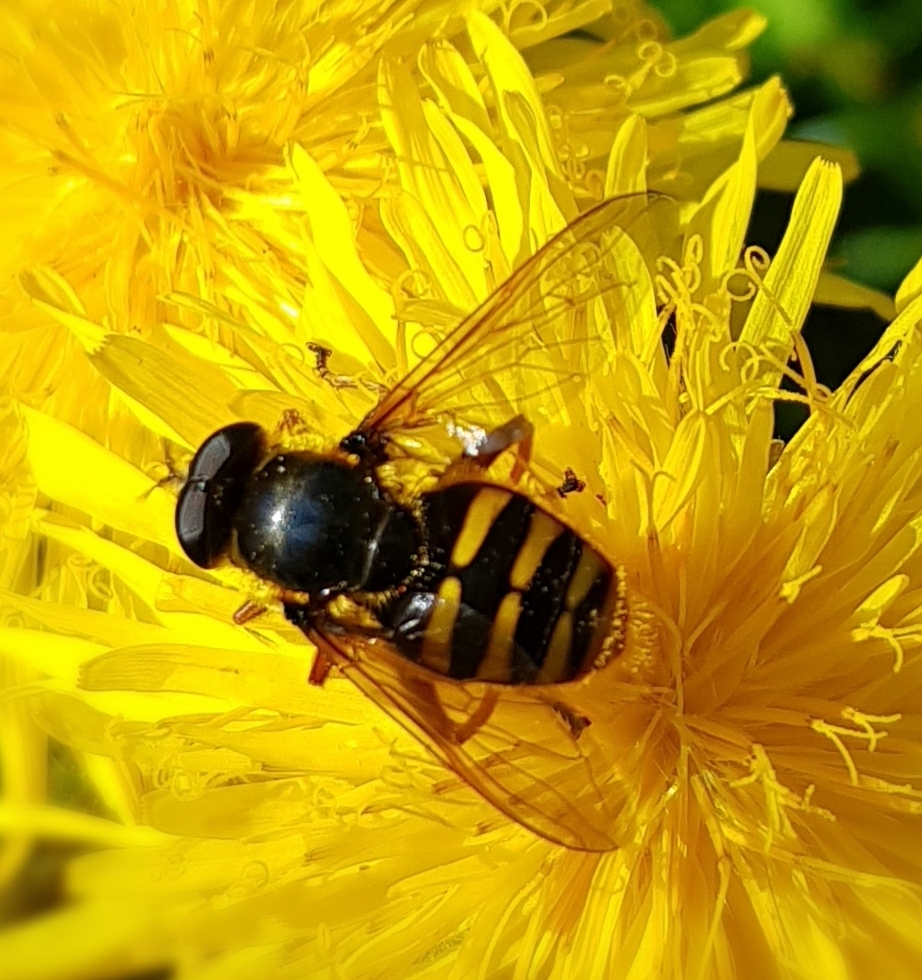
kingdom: Animalia
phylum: Arthropoda
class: Insecta
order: Diptera
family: Syrphidae
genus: Sericomyia
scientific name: Sericomyia silentis
